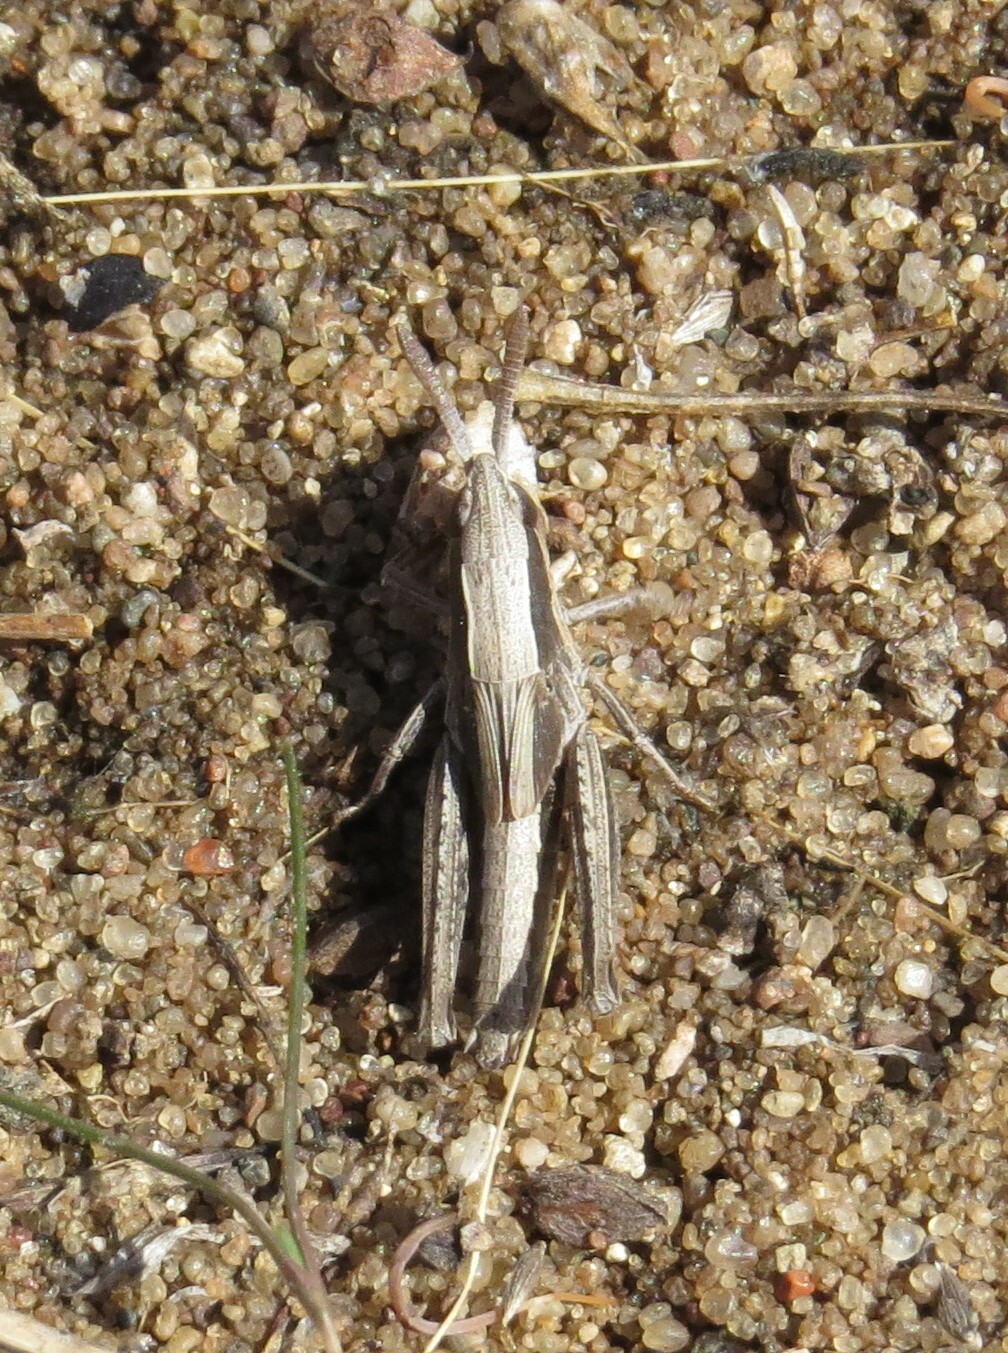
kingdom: Animalia
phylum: Arthropoda
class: Insecta
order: Orthoptera
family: Acrididae
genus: Eritettix
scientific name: Eritettix simplex
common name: Velvet-striped grasshopper
